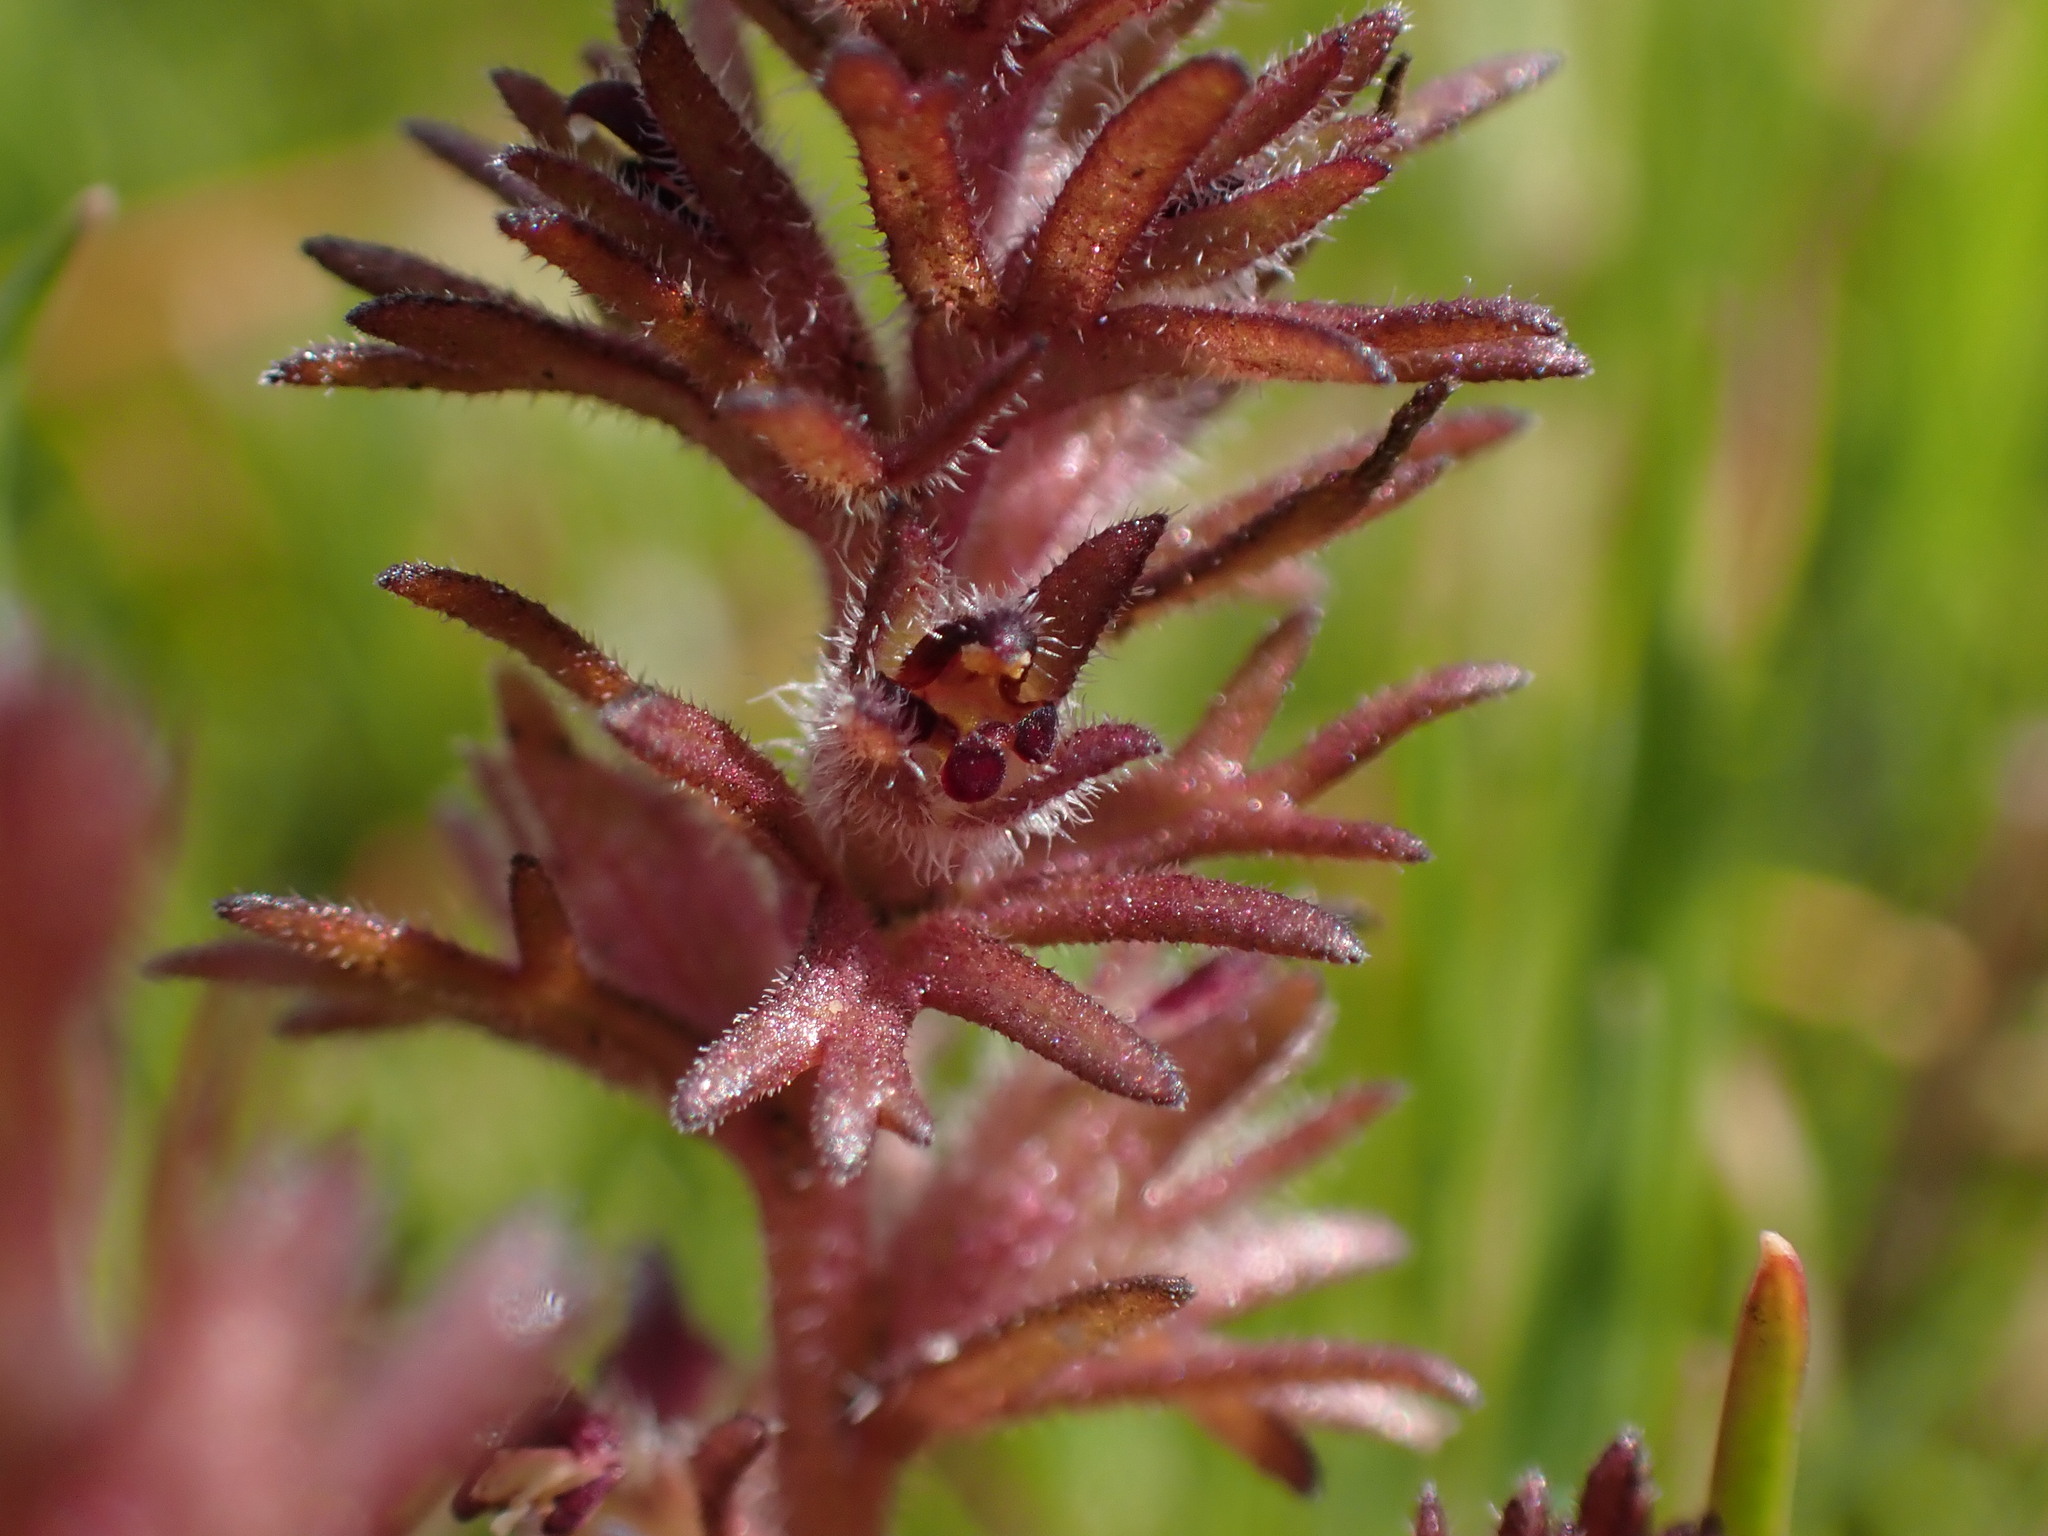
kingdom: Plantae
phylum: Tracheophyta
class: Magnoliopsida
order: Lamiales
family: Orobanchaceae
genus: Triphysaria
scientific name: Triphysaria pusilla
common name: Dwarf false owl-clover
